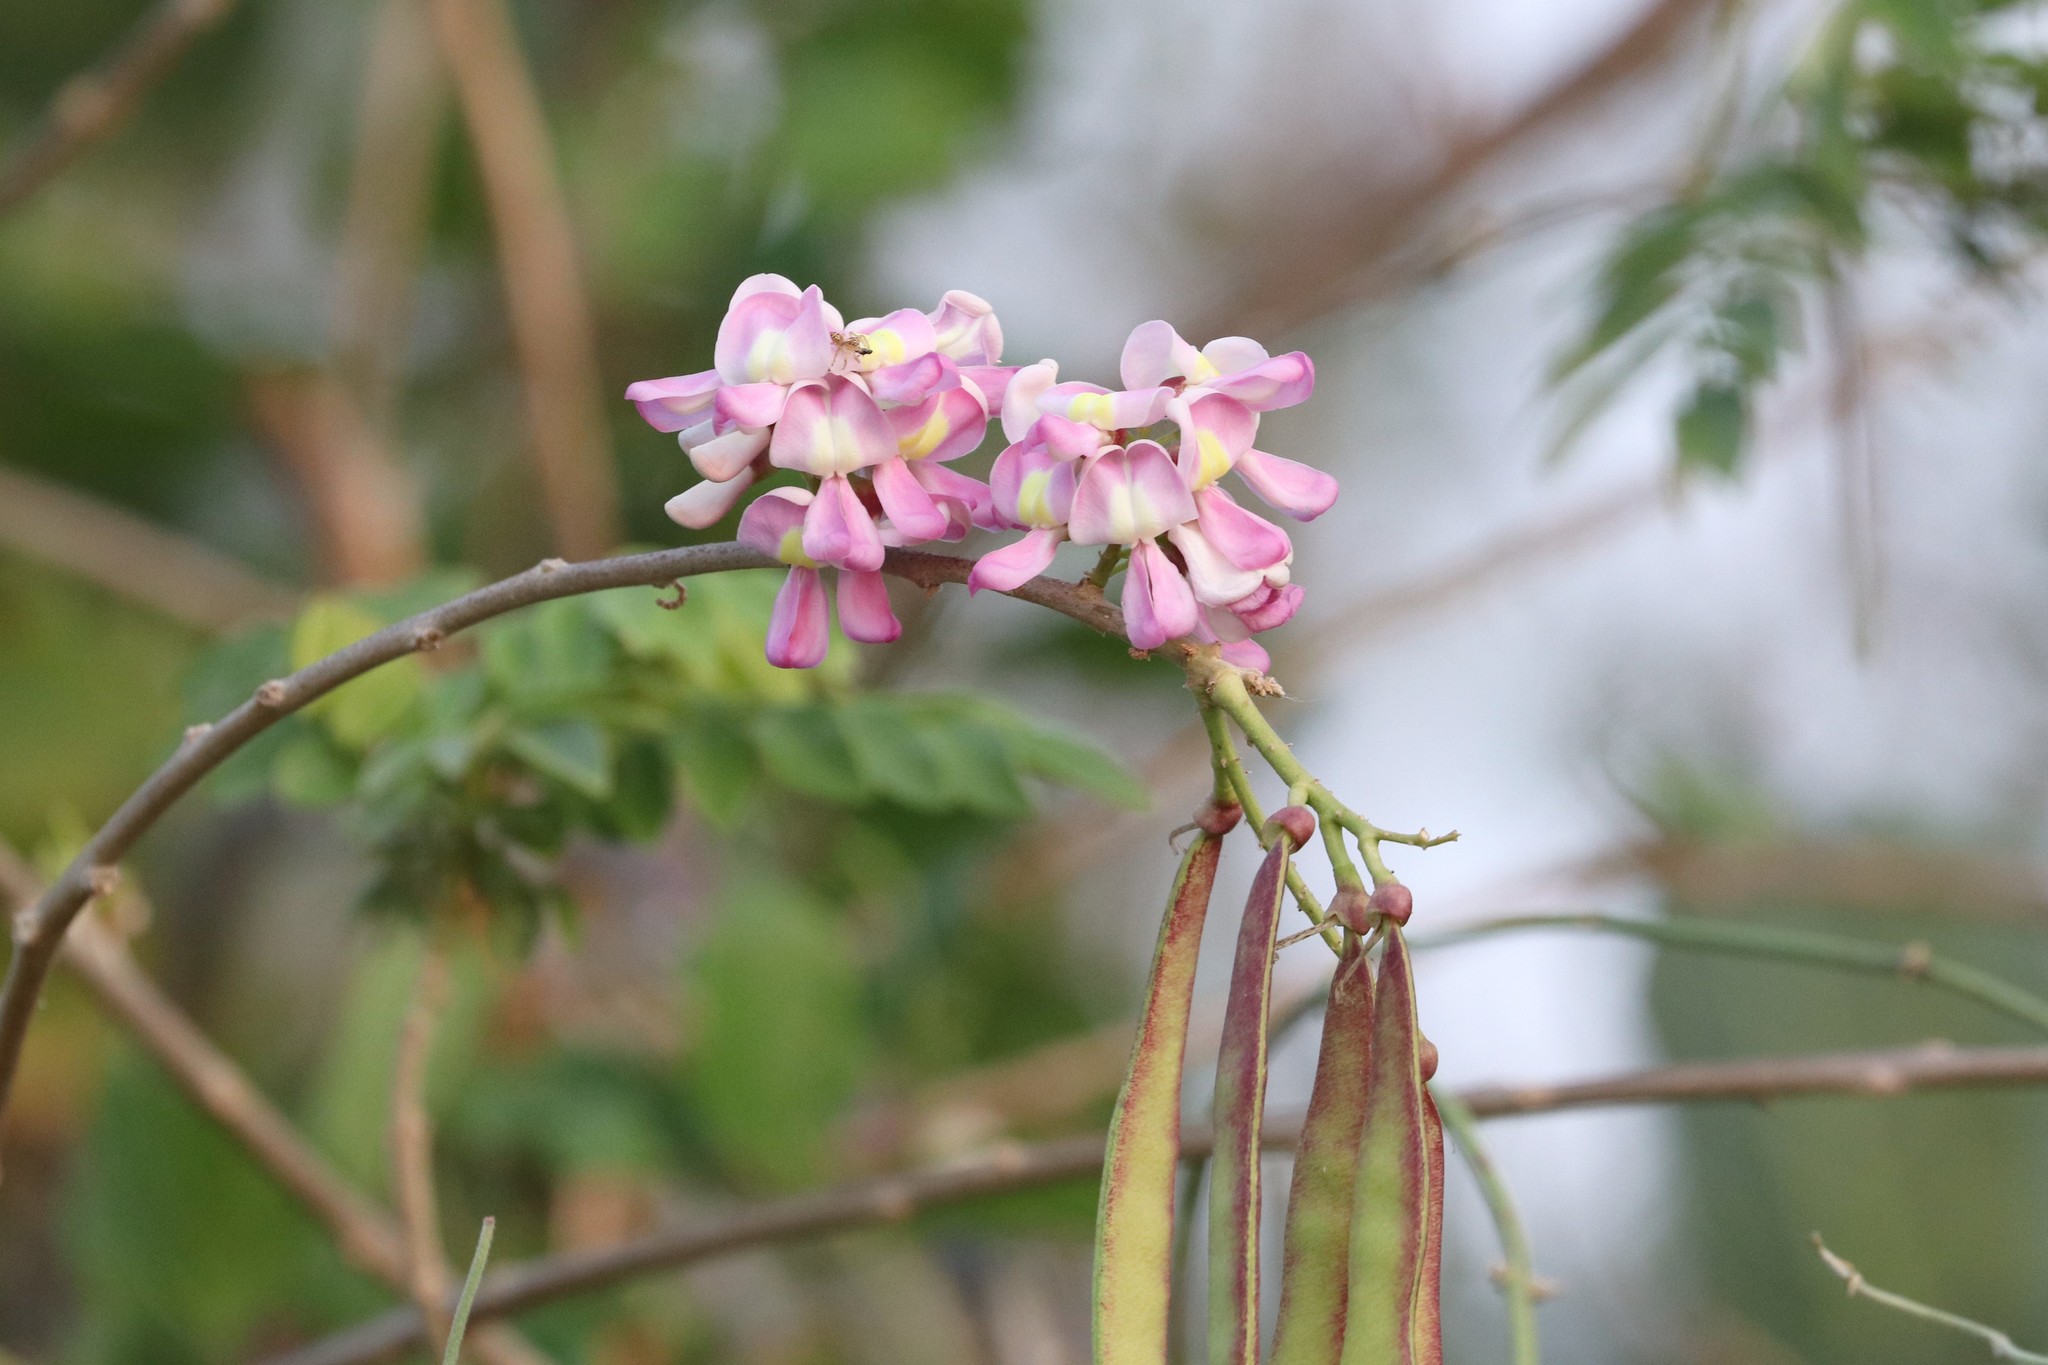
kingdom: Plantae
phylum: Tracheophyta
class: Magnoliopsida
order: Fabales
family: Fabaceae
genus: Gliricidia
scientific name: Gliricidia sepium
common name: Quickstick
